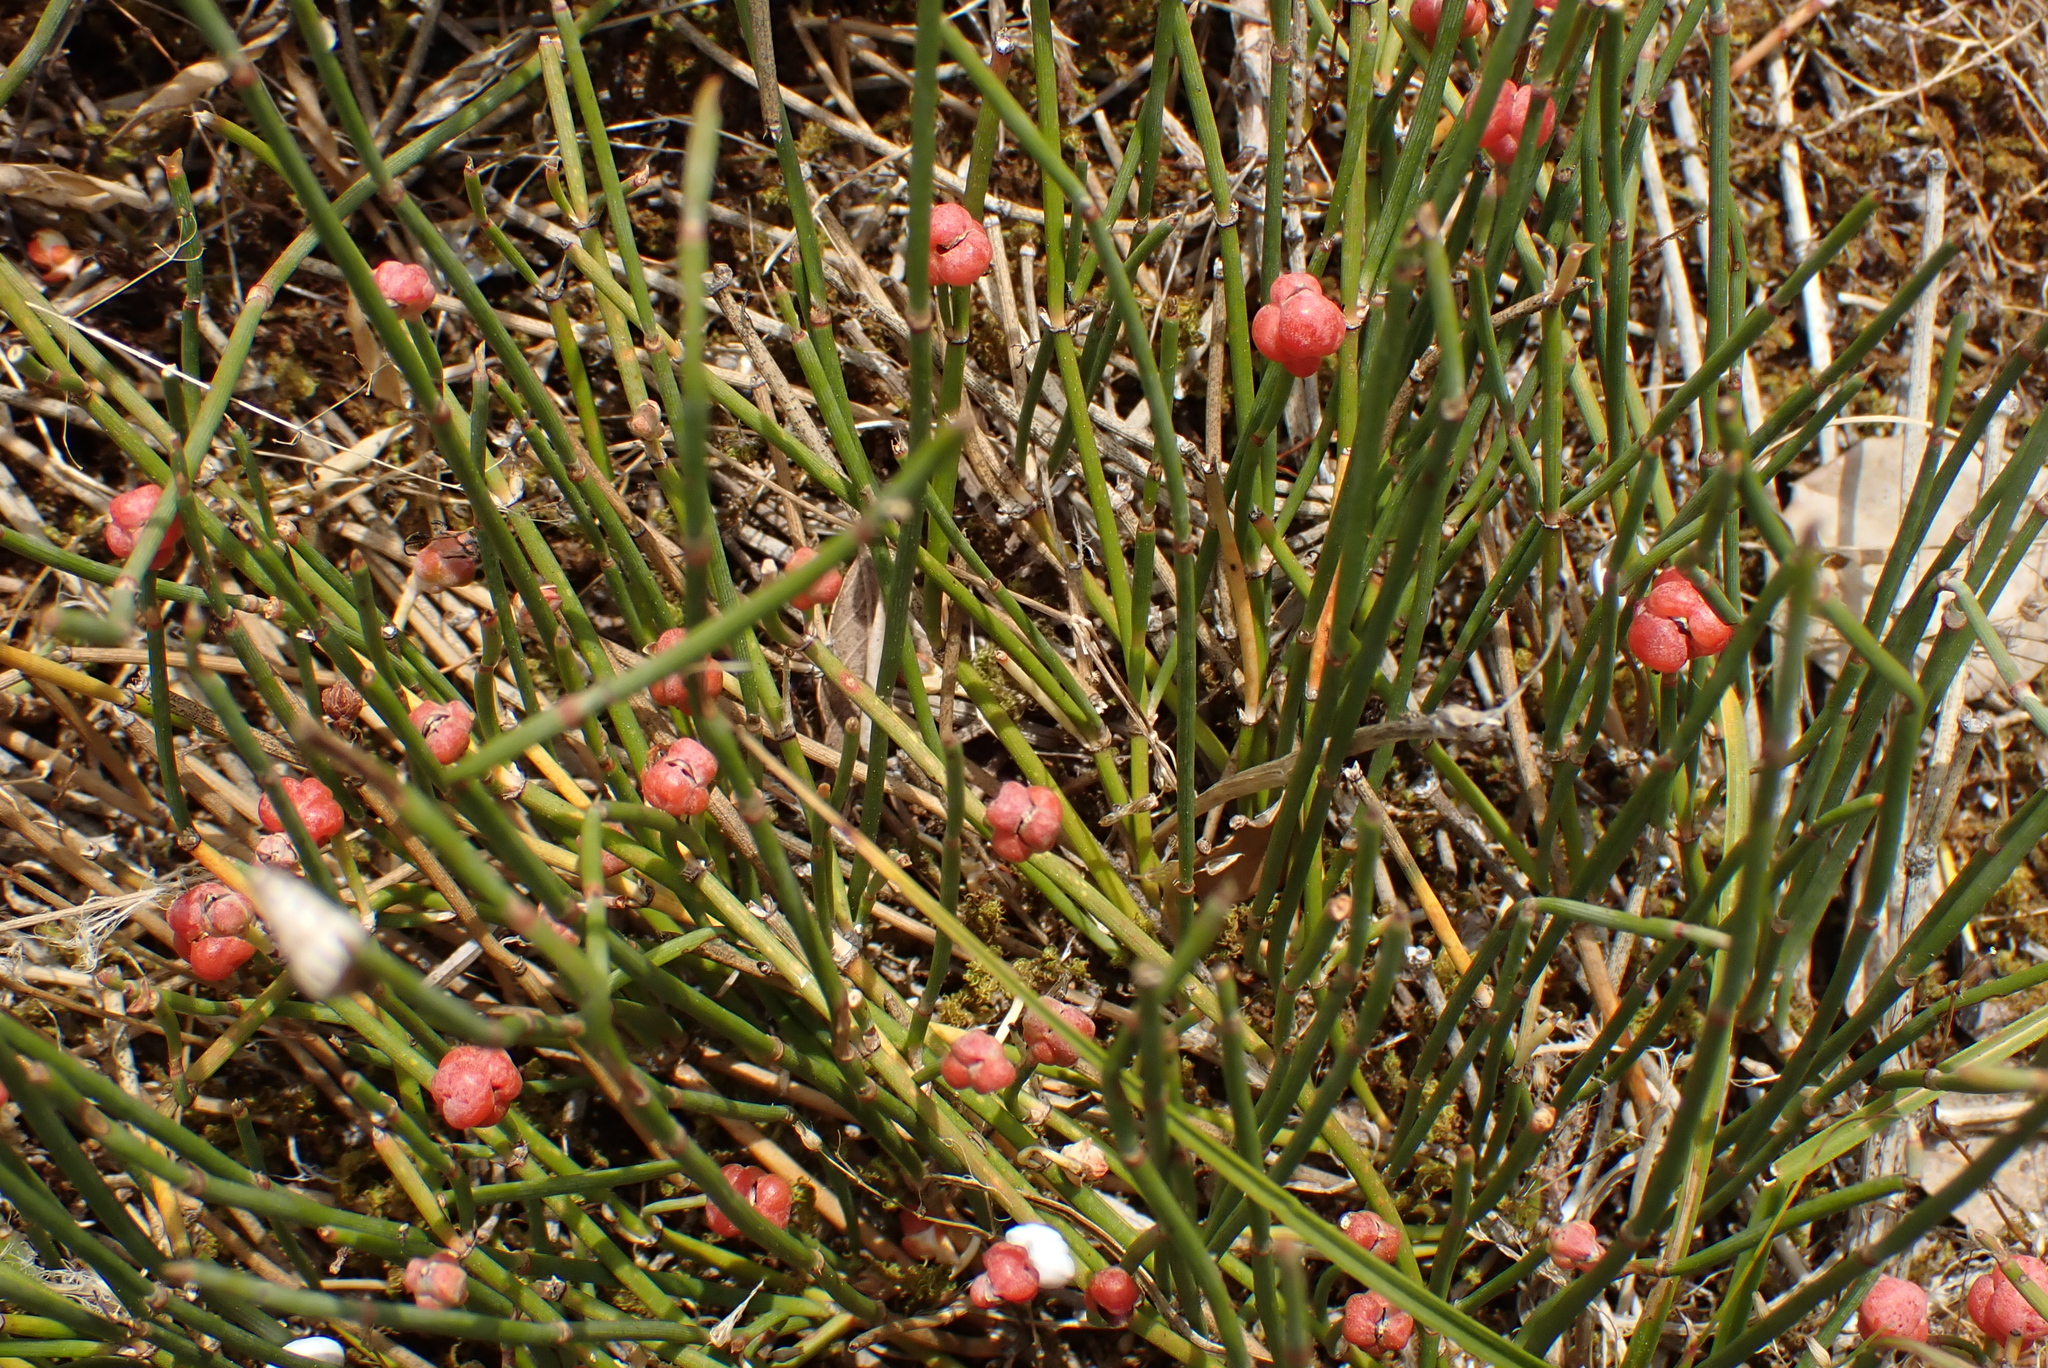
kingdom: Plantae
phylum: Tracheophyta
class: Gnetopsida
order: Ephedrales
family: Ephedraceae
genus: Ephedra
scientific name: Ephedra distachya
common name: Sea grape
